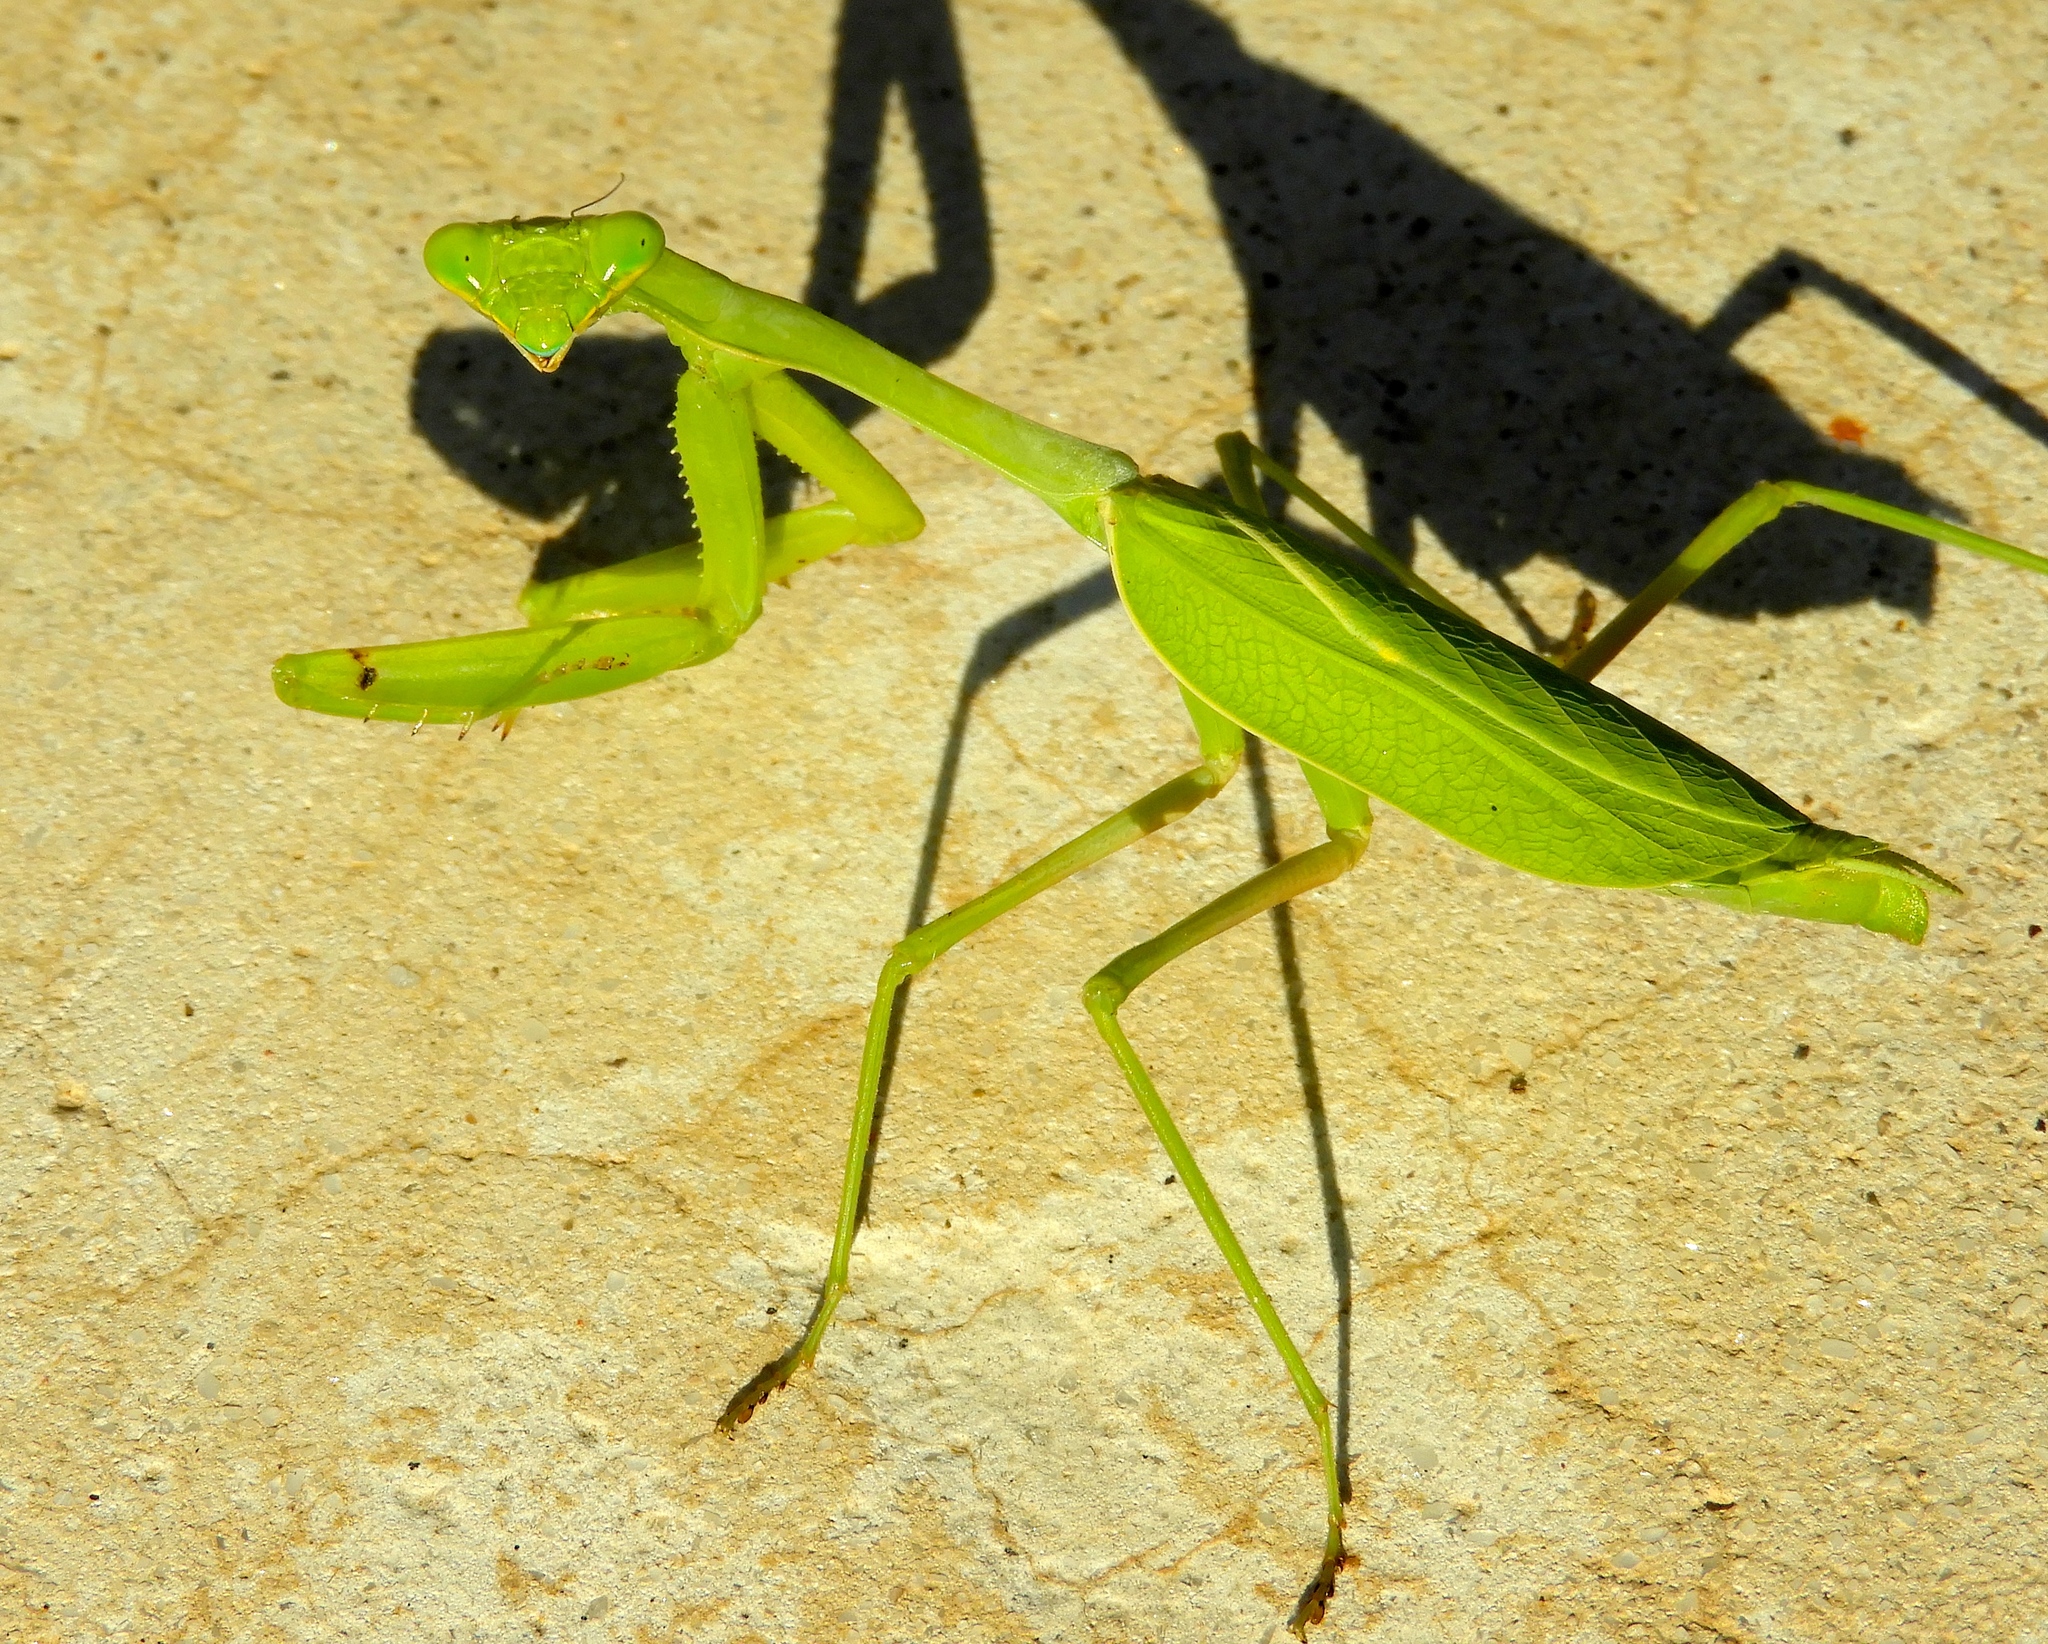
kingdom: Animalia
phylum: Arthropoda
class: Insecta
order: Mantodea
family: Mantidae
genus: Stagmomantis
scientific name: Stagmomantis
